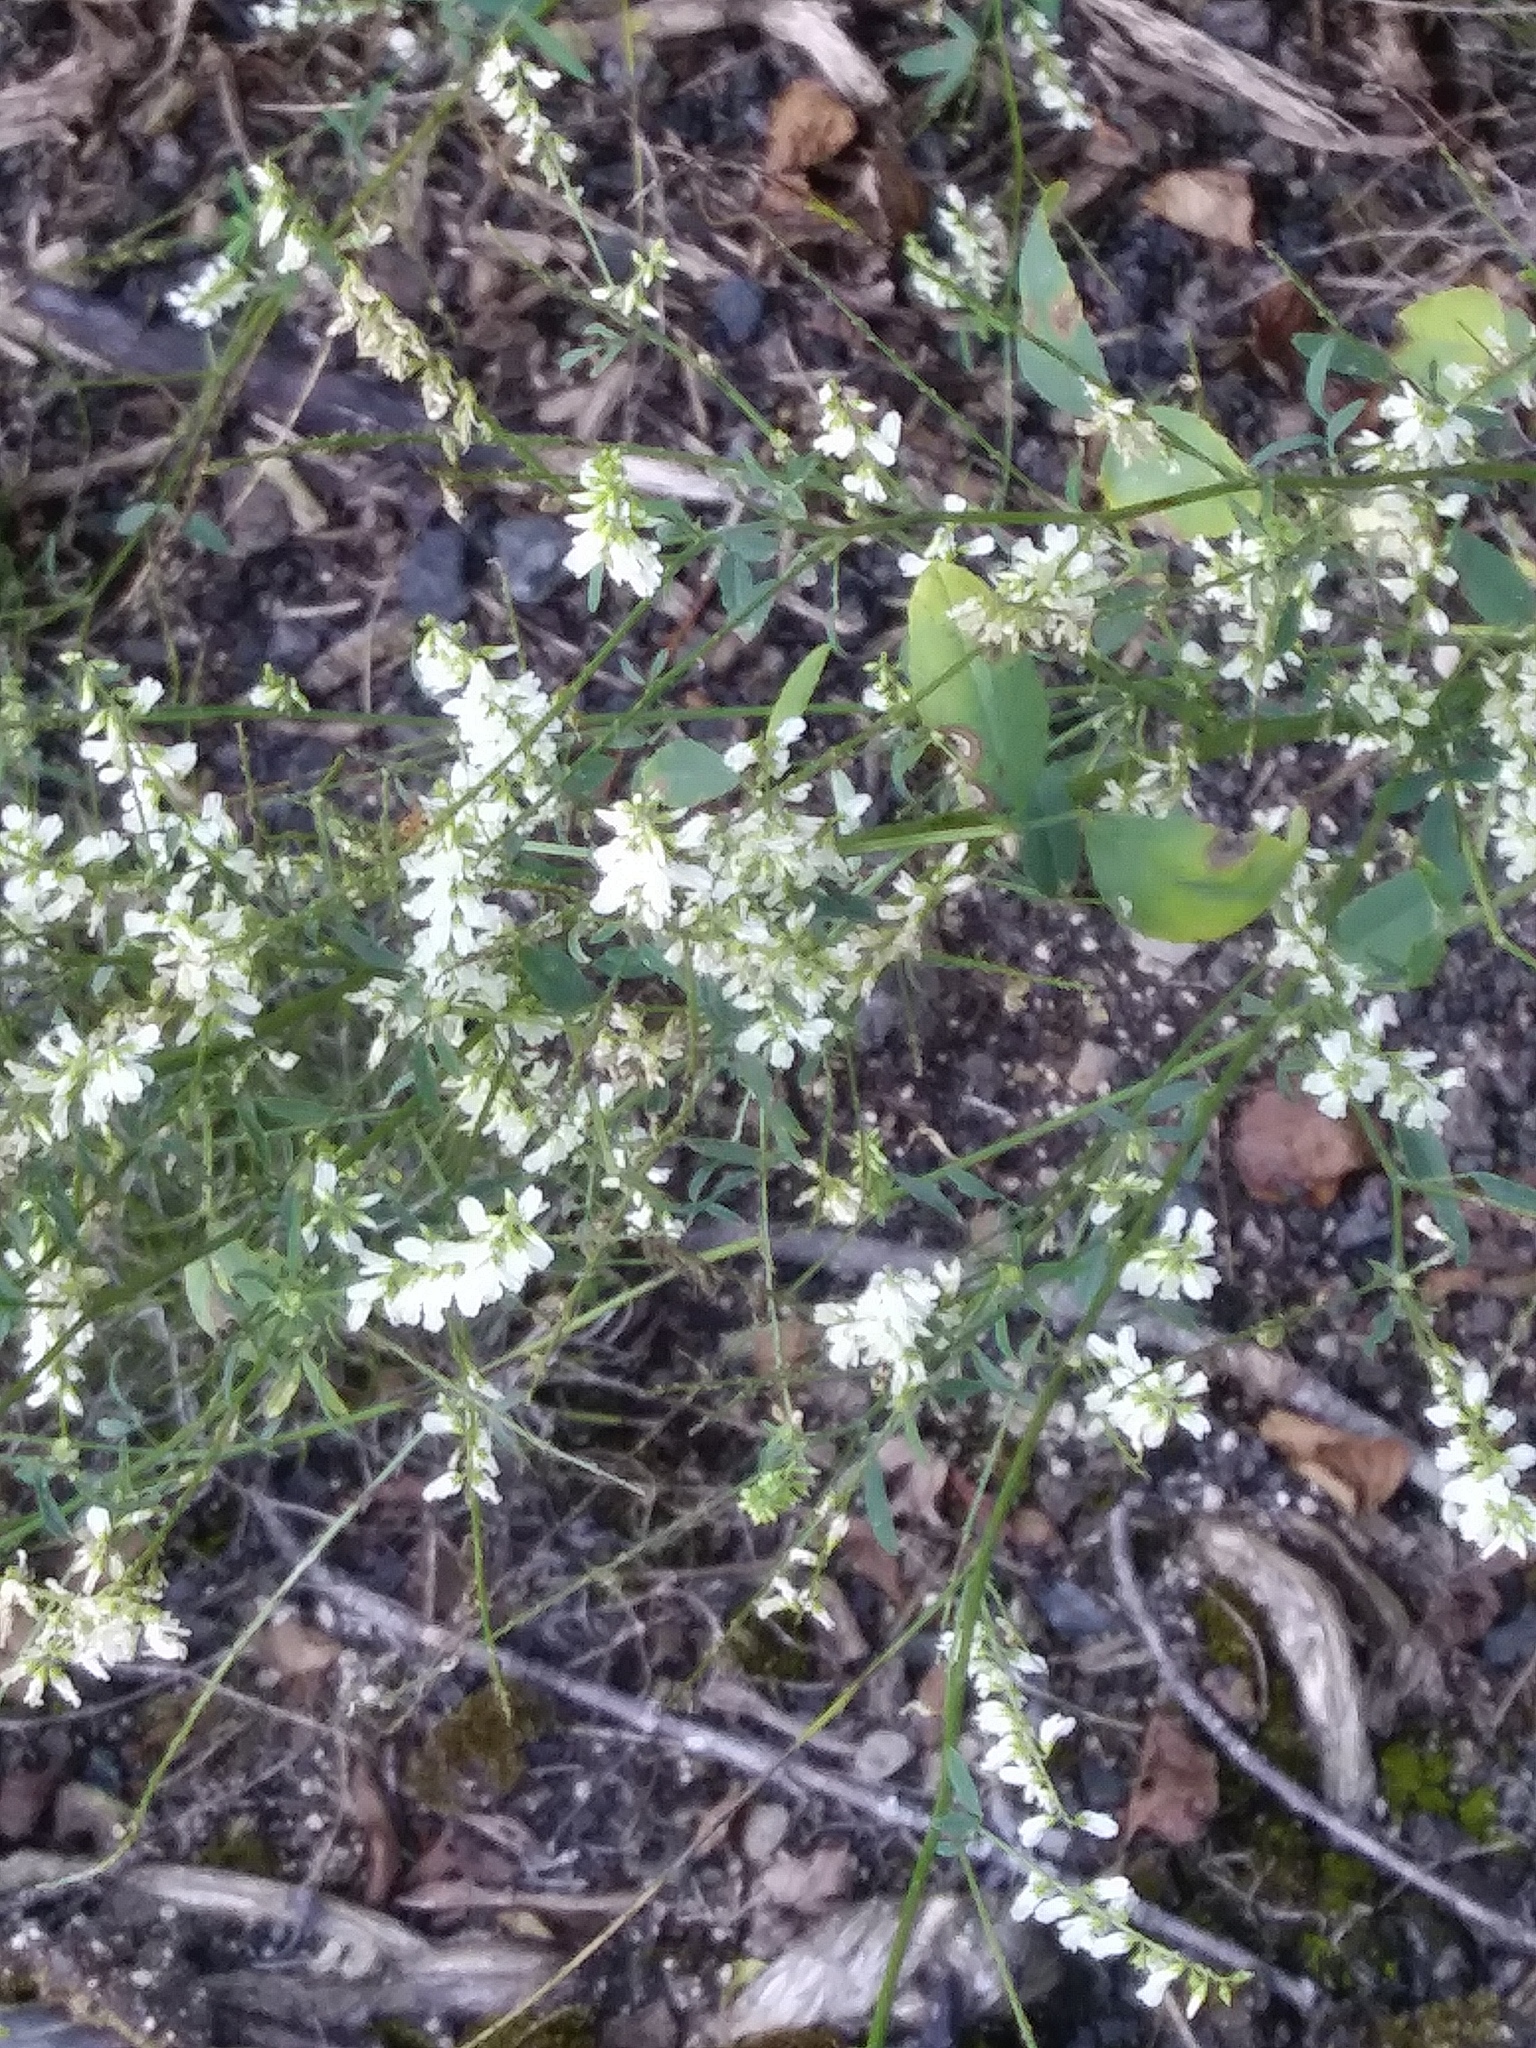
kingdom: Plantae
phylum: Tracheophyta
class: Magnoliopsida
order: Fabales
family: Fabaceae
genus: Melilotus
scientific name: Melilotus albus
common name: White melilot
